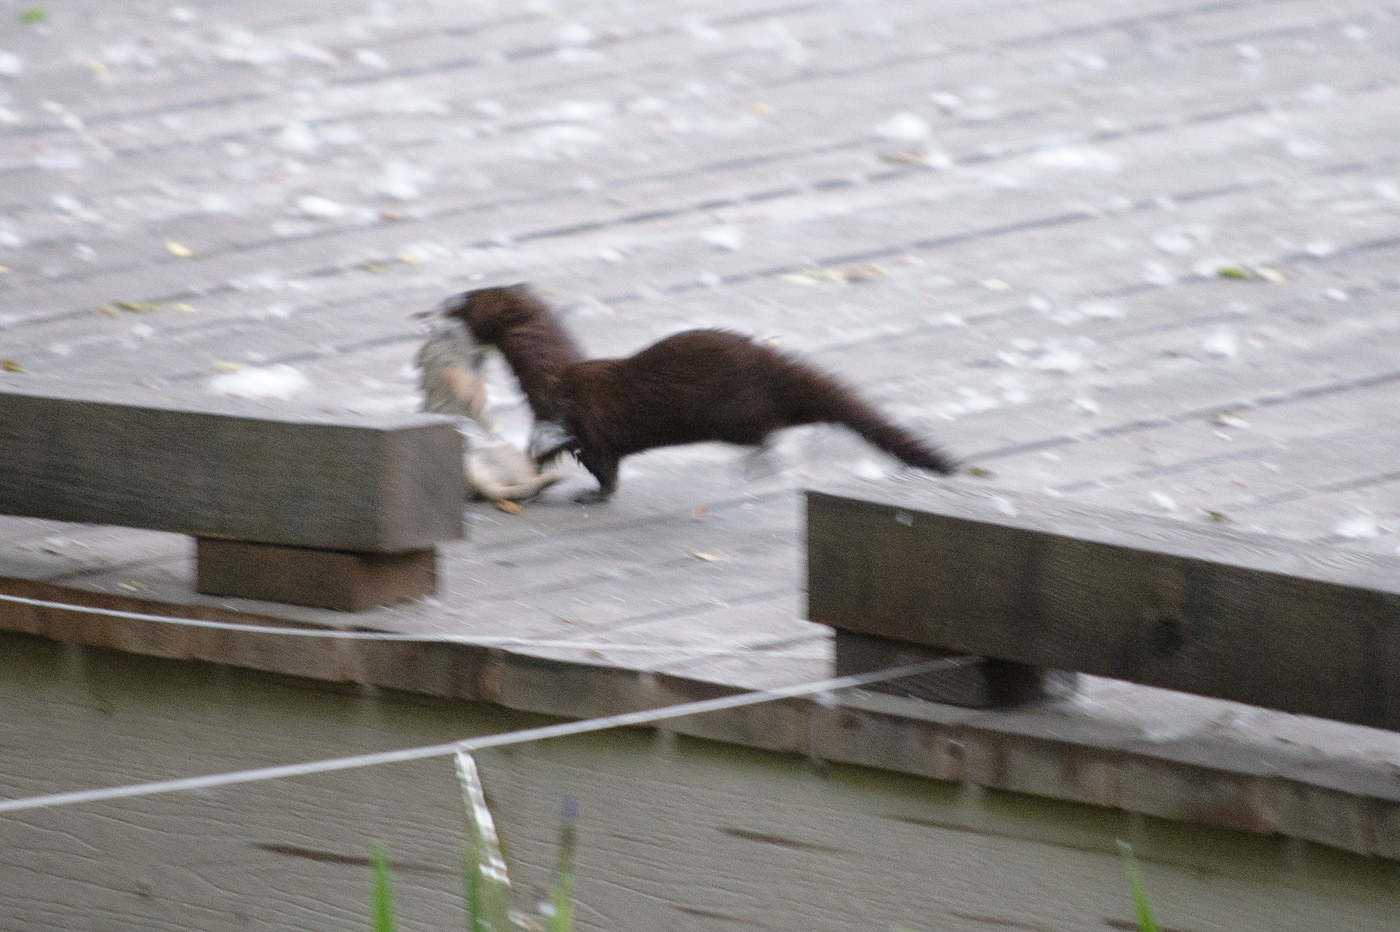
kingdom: Animalia
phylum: Chordata
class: Mammalia
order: Carnivora
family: Mustelidae
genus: Mustela
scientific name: Mustela
